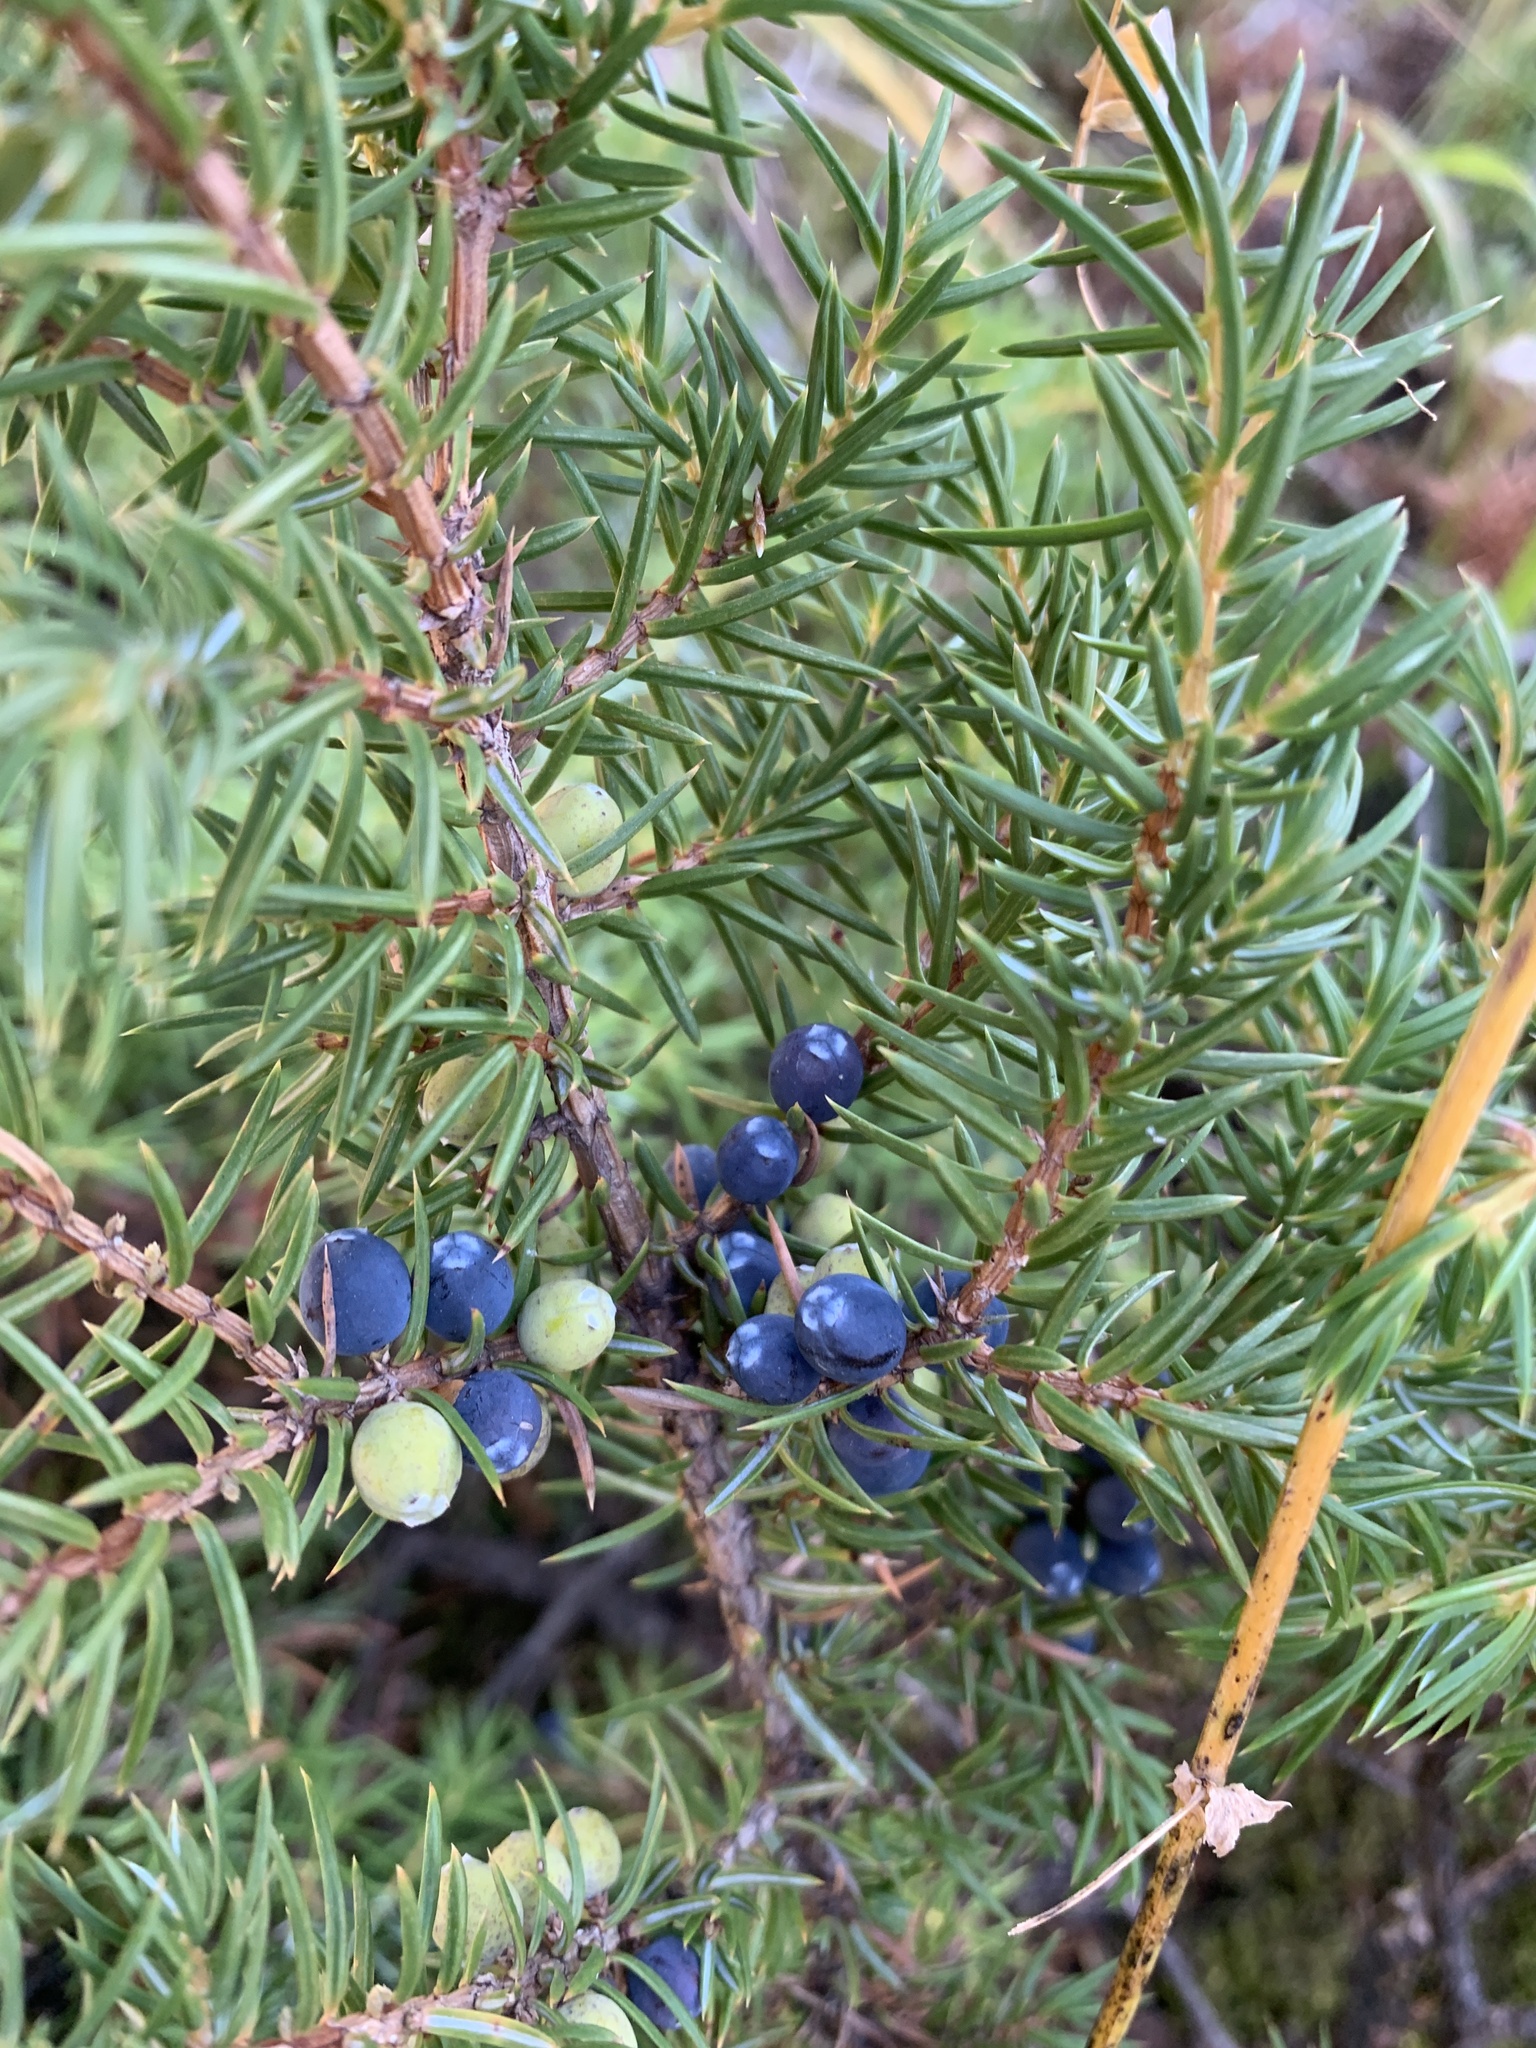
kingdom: Plantae
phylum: Tracheophyta
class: Pinopsida
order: Pinales
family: Cupressaceae
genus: Juniperus
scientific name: Juniperus communis
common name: Common juniper
